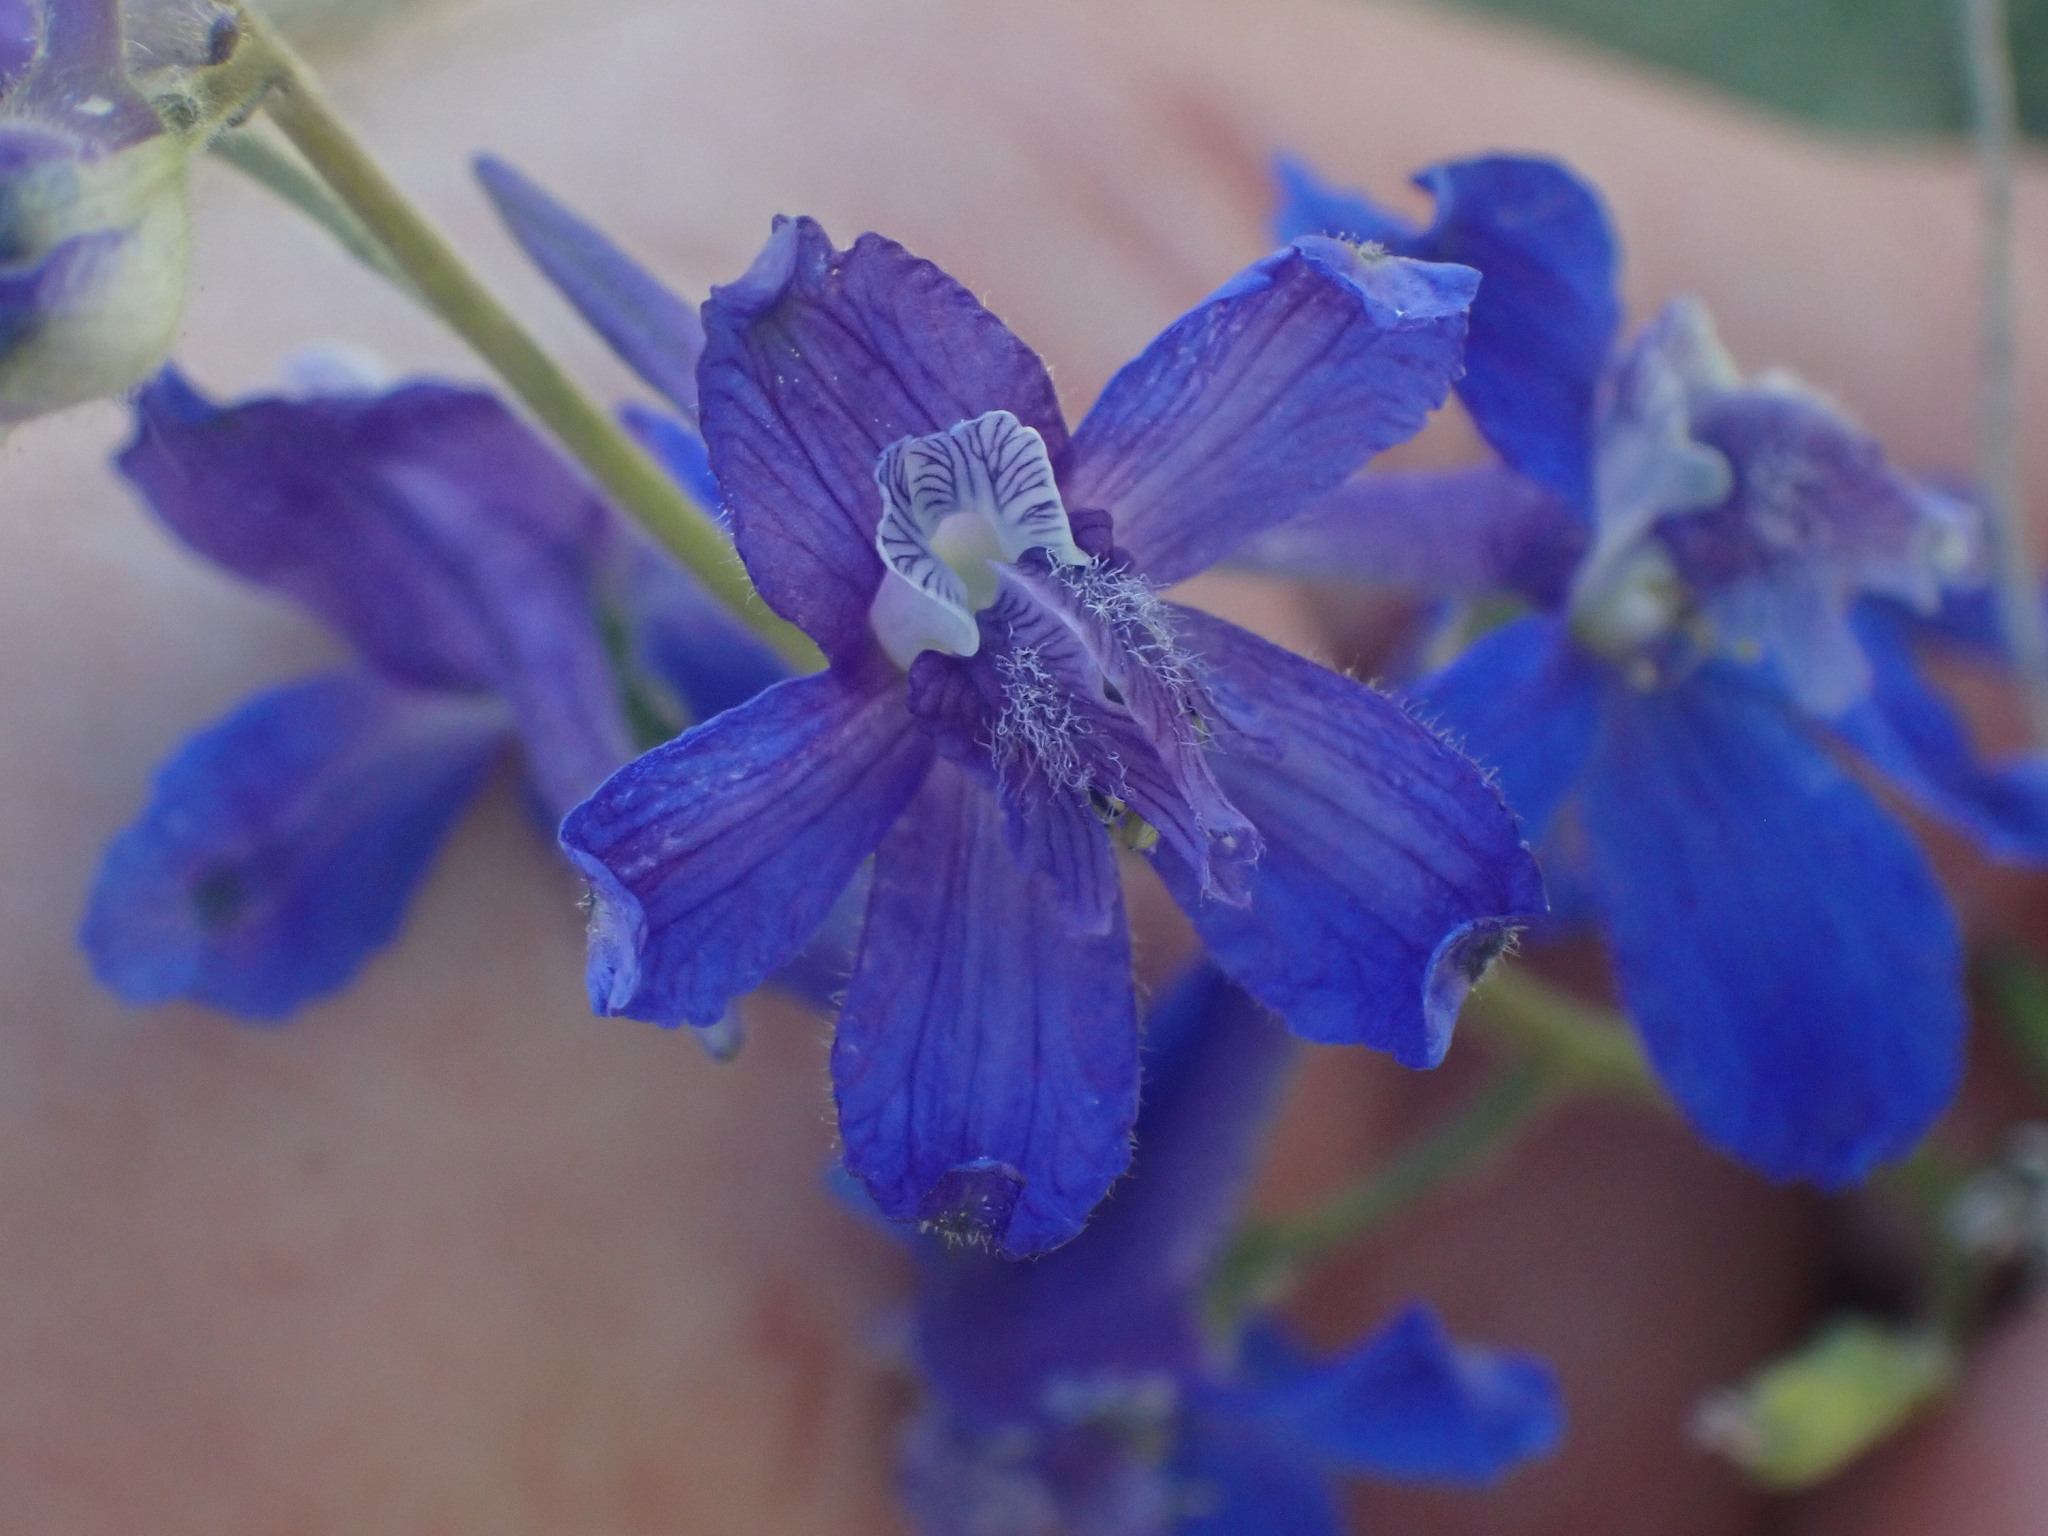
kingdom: Plantae
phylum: Tracheophyta
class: Magnoliopsida
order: Ranunculales
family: Ranunculaceae
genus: Delphinium
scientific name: Delphinium nuttallianum
